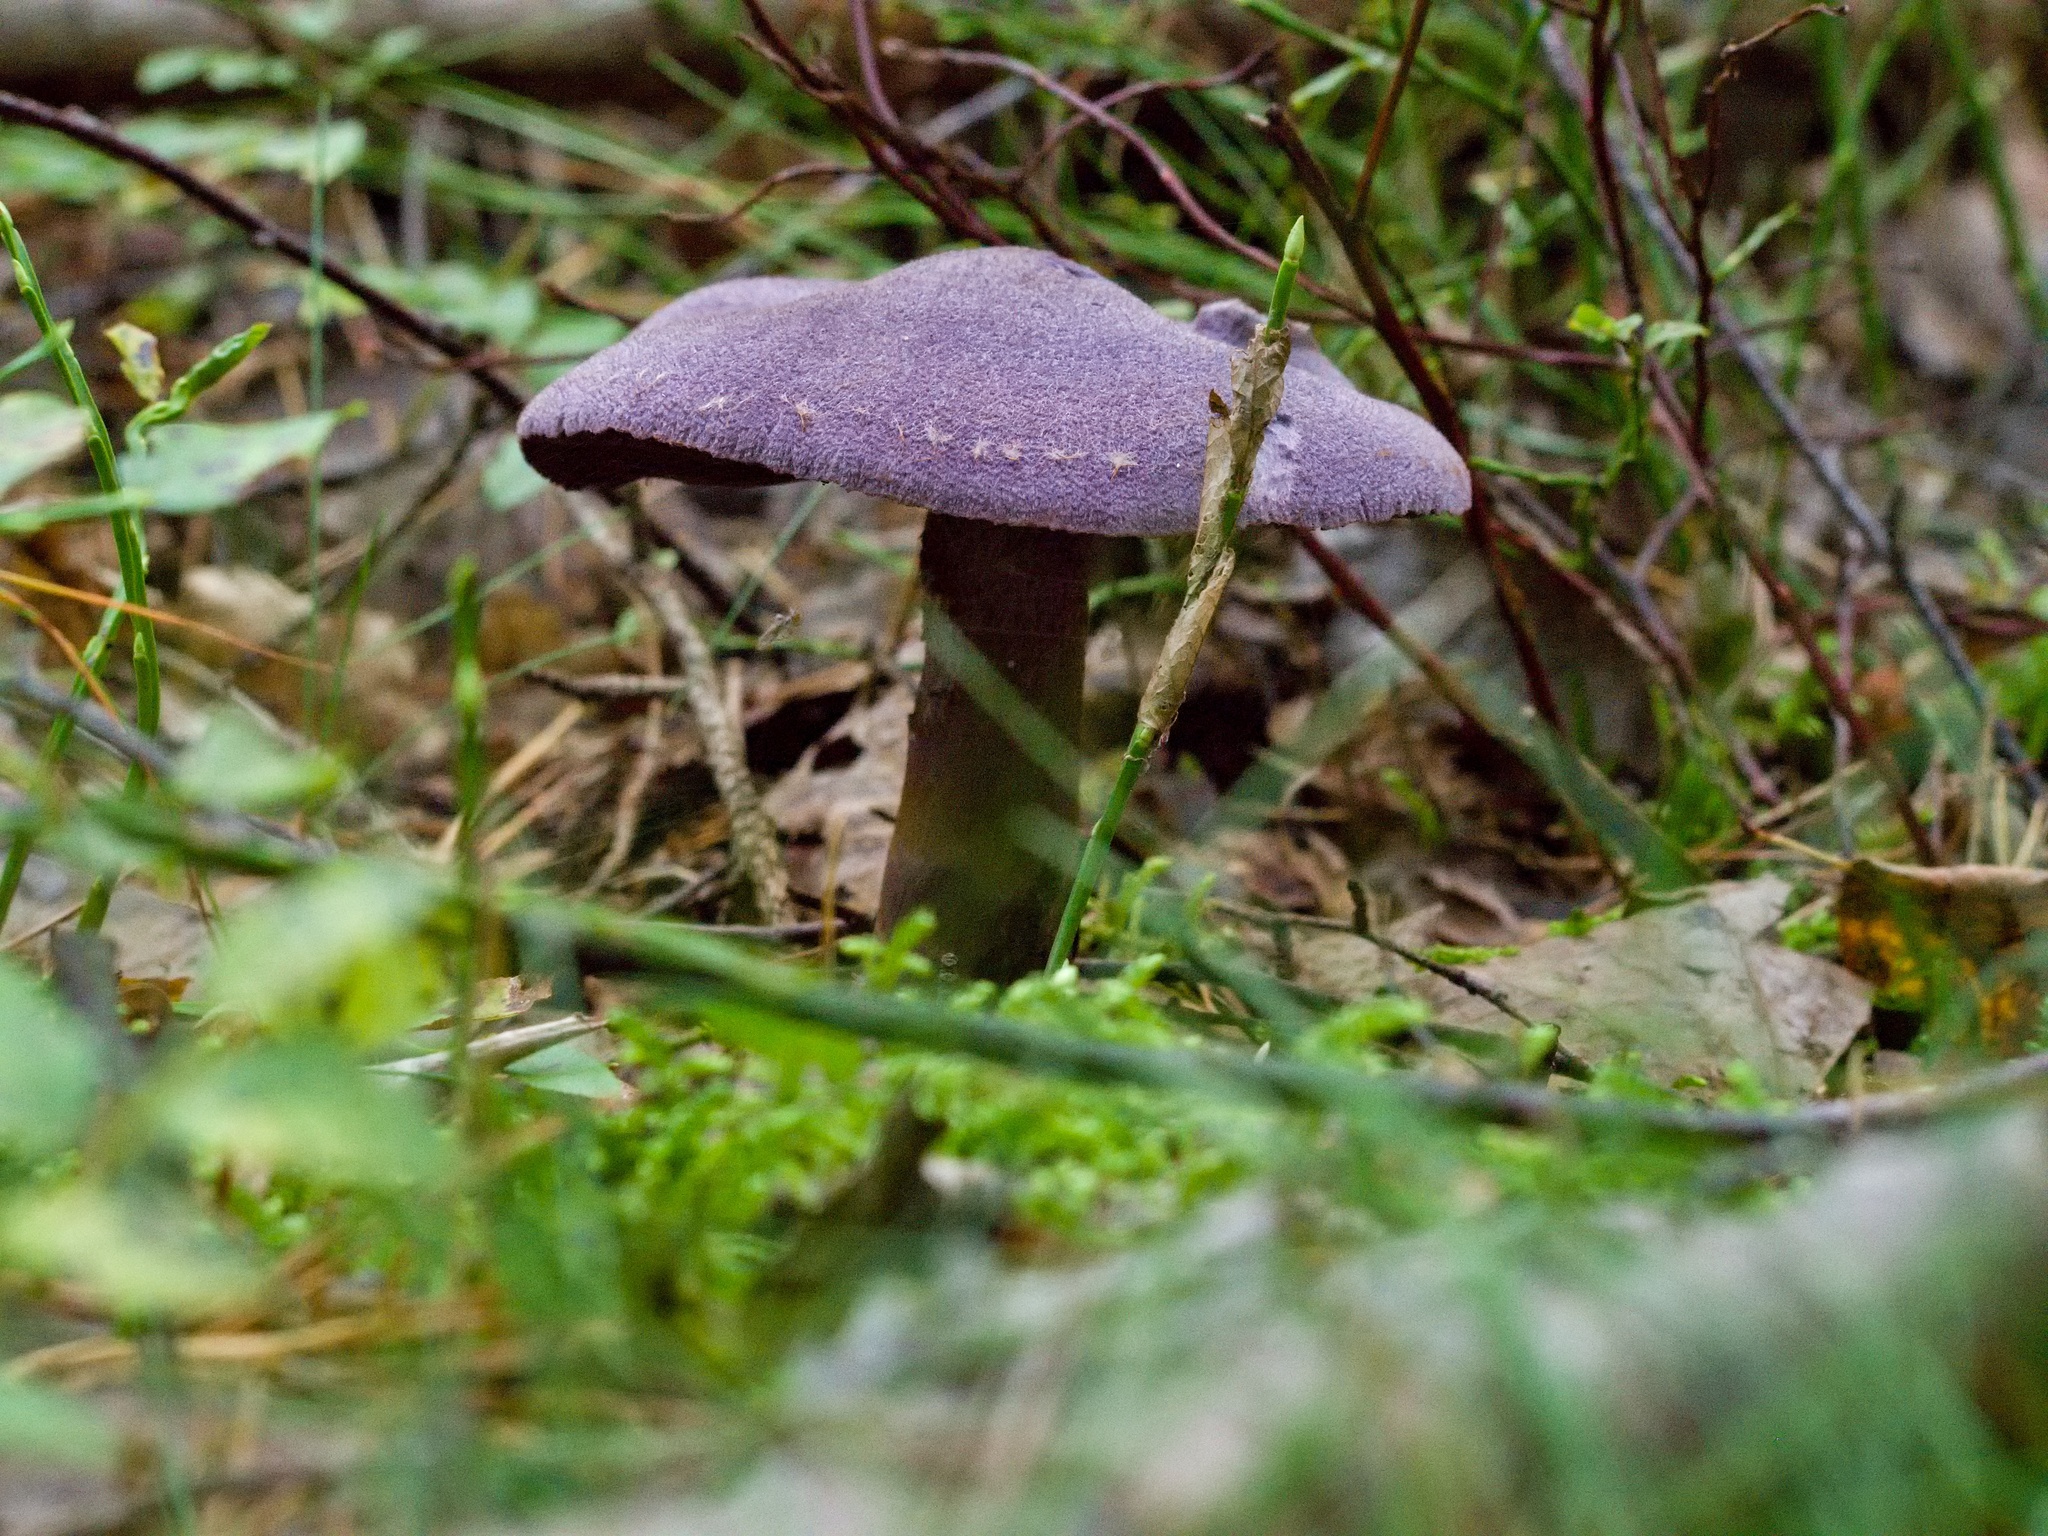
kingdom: Fungi
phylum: Basidiomycota
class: Agaricomycetes
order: Agaricales
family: Cortinariaceae
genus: Cortinarius
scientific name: Cortinarius violaceus
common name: Violet webcap
